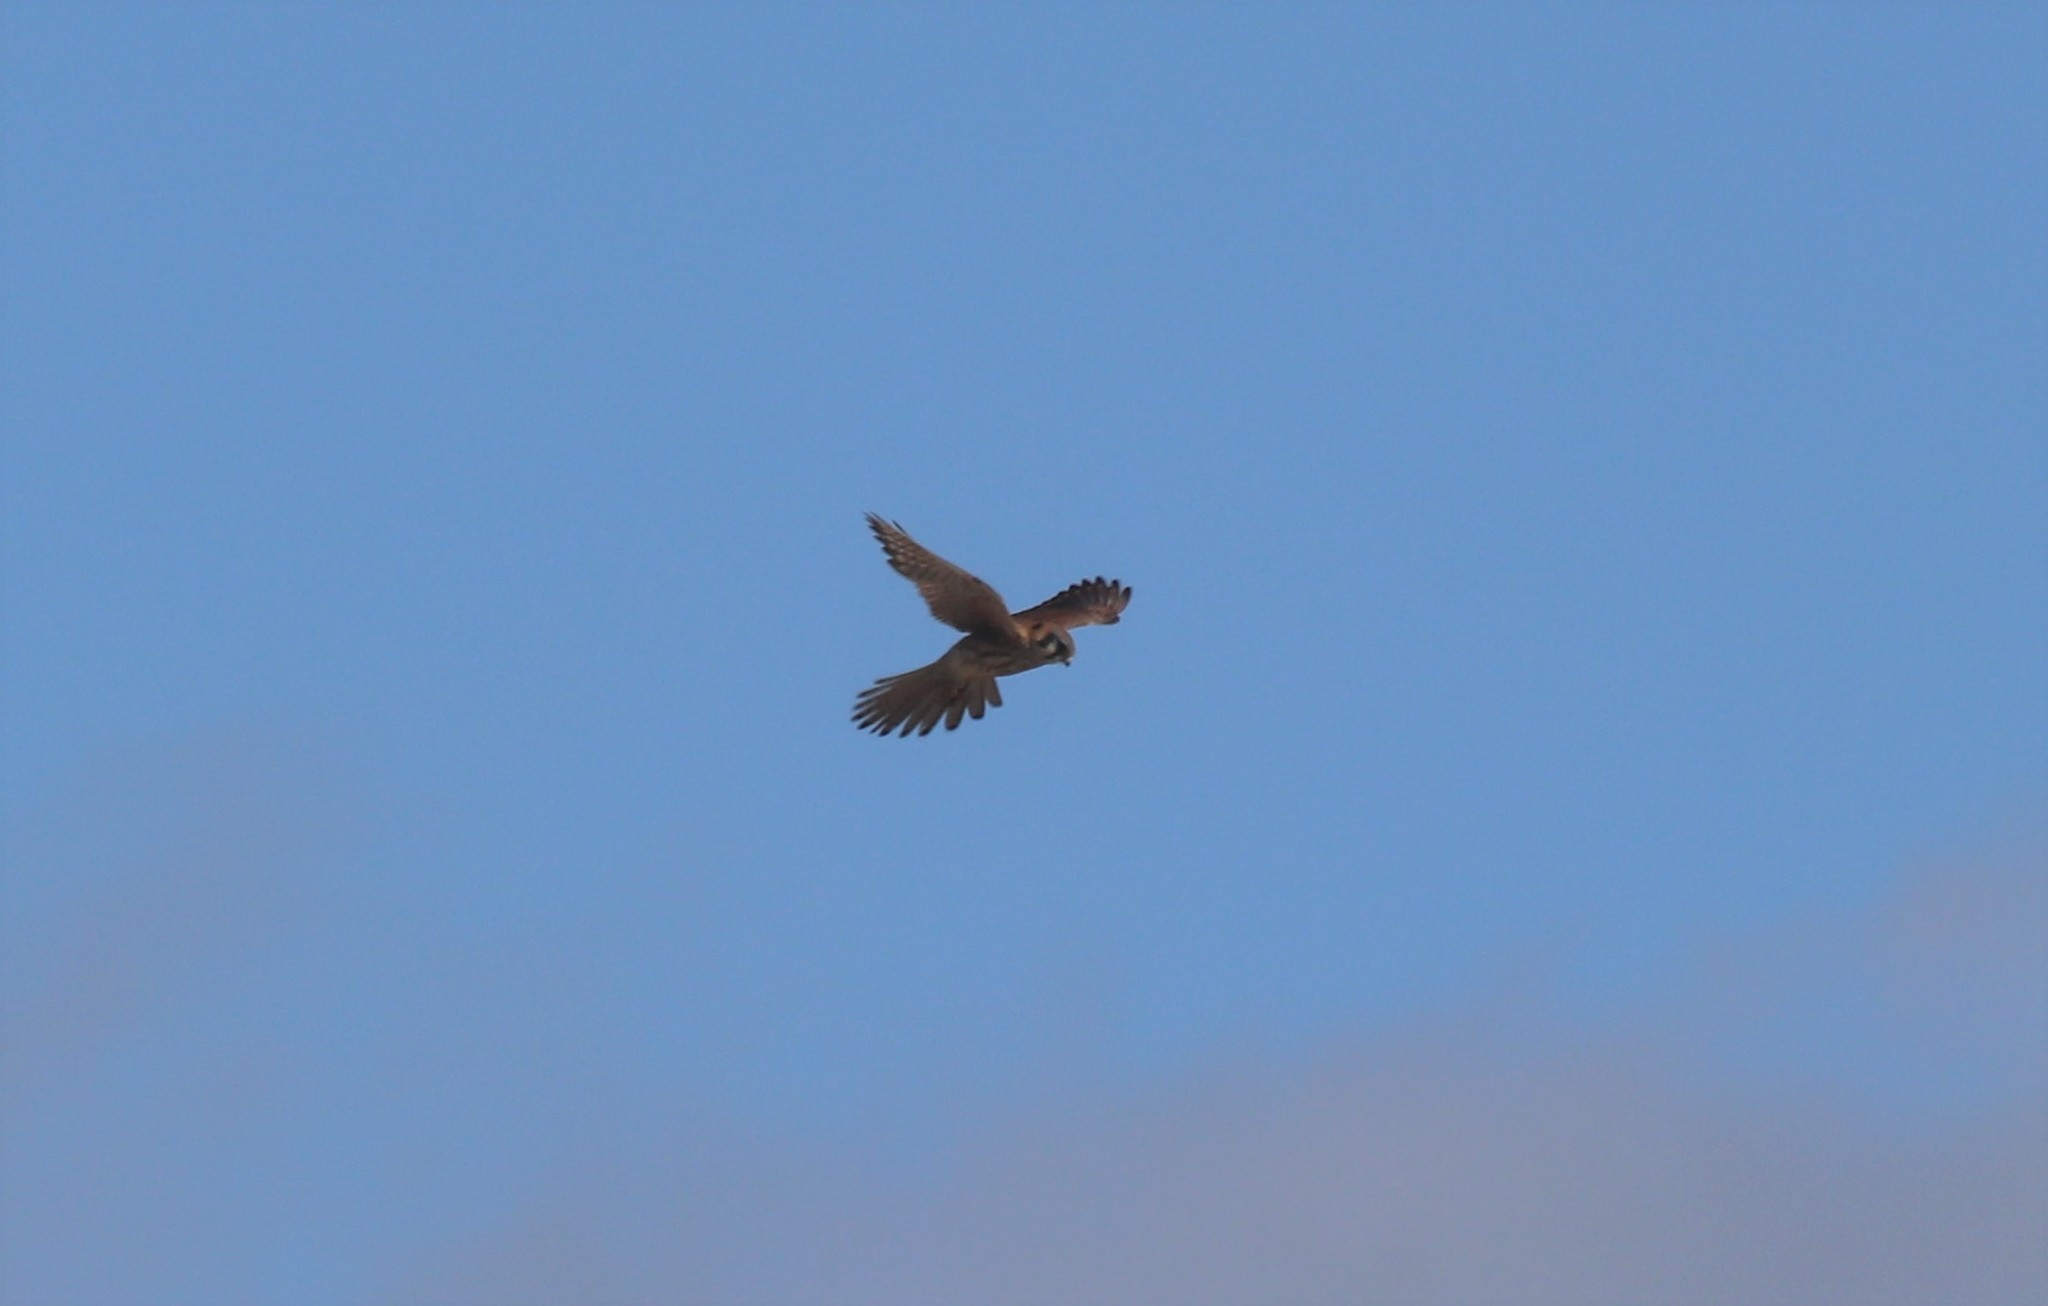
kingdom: Animalia
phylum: Chordata
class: Aves
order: Falconiformes
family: Falconidae
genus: Falco
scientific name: Falco sparverius
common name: American kestrel
